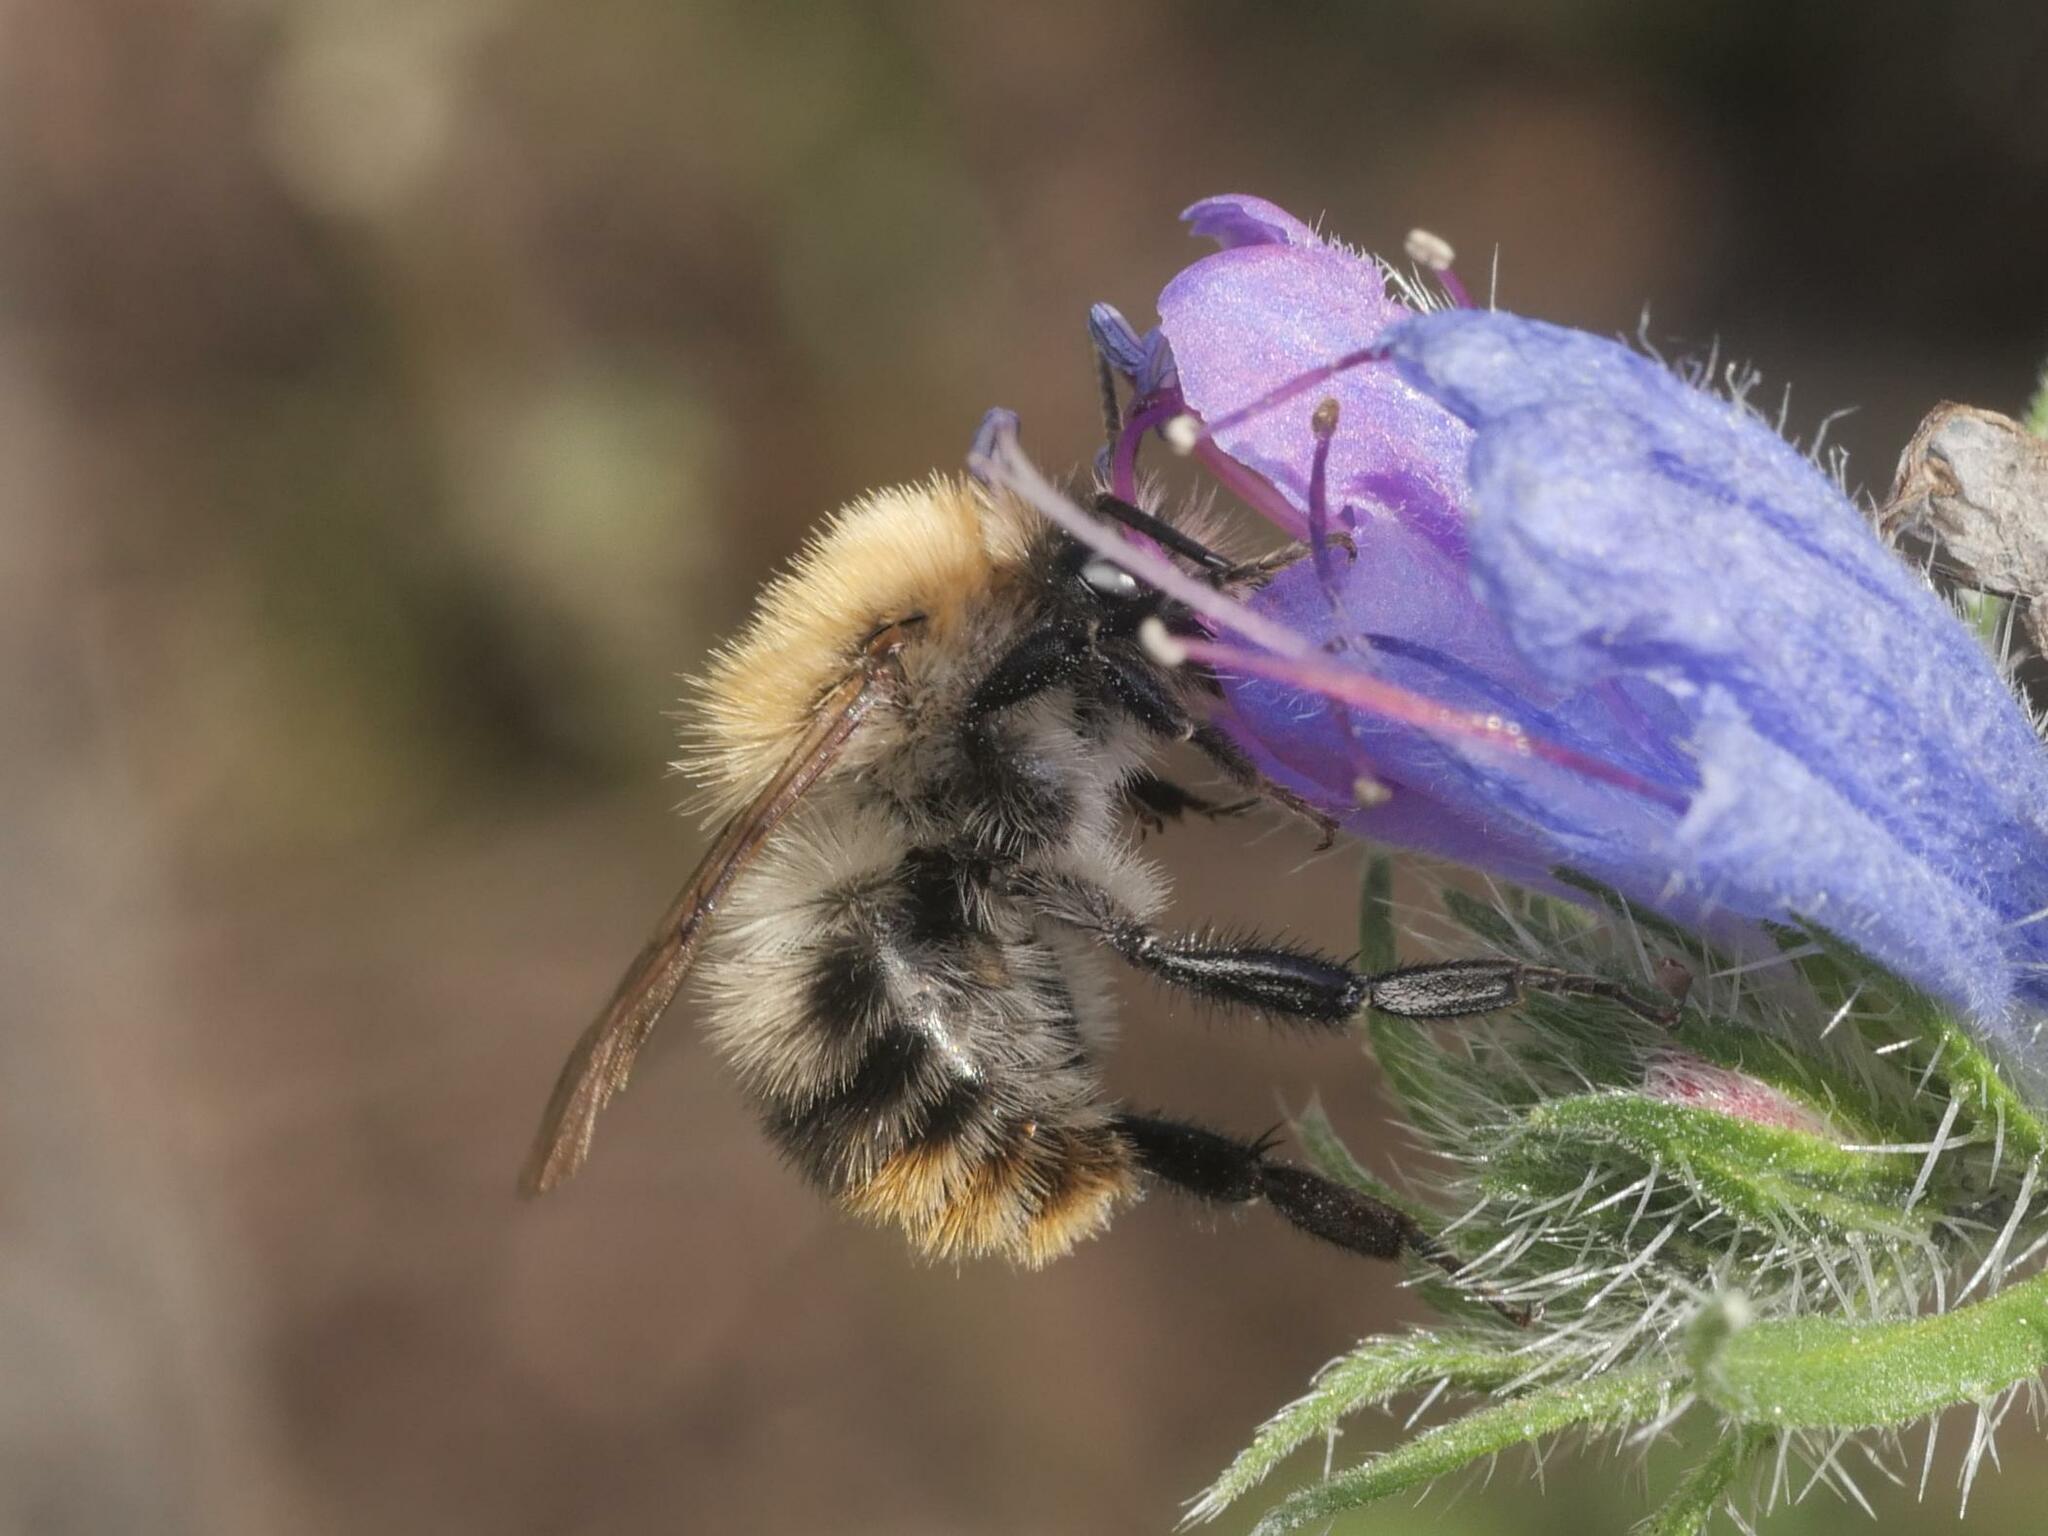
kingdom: Animalia
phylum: Arthropoda
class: Insecta
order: Hymenoptera
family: Apidae
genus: Bombus
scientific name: Bombus pascuorum
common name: Common carder bee
